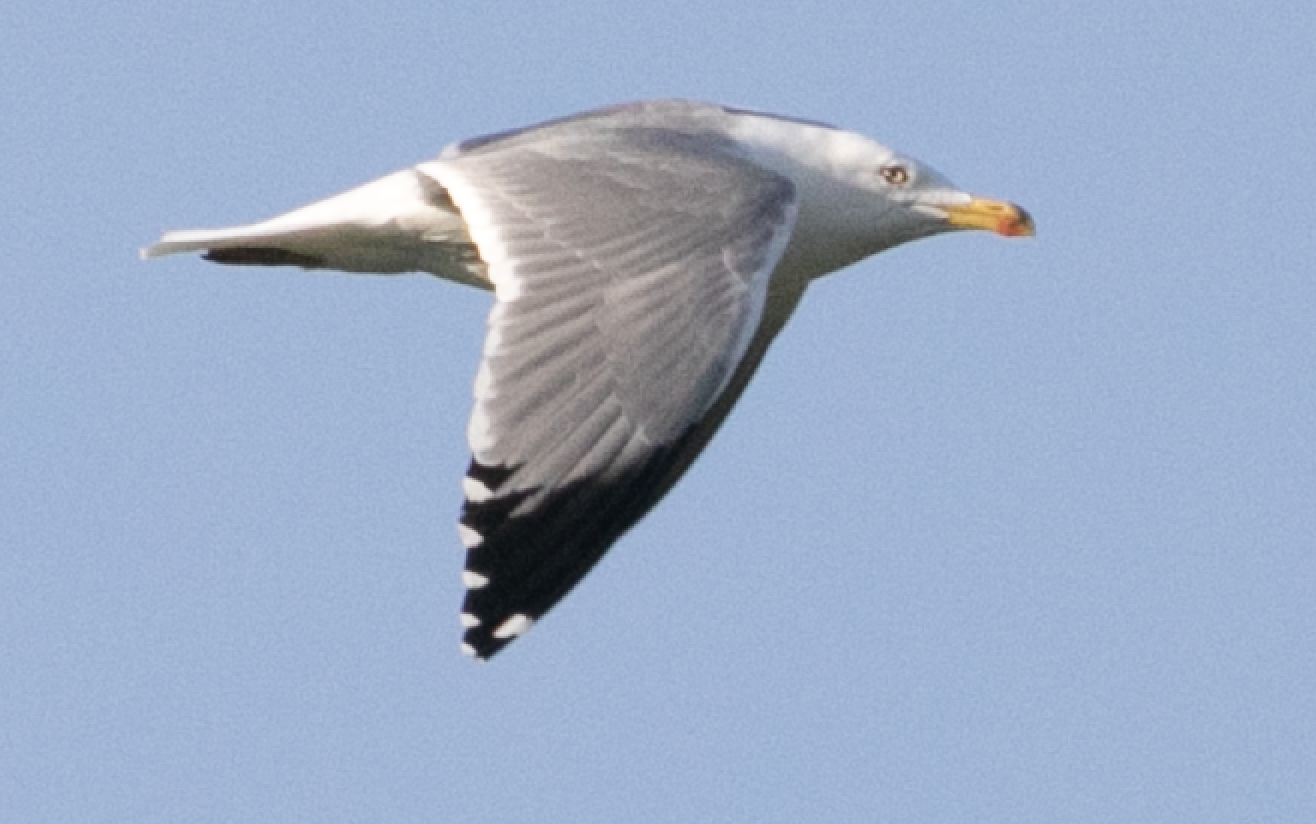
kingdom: Animalia
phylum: Chordata
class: Aves
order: Charadriiformes
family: Laridae
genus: Larus
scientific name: Larus michahellis
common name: Yellow-legged gull
